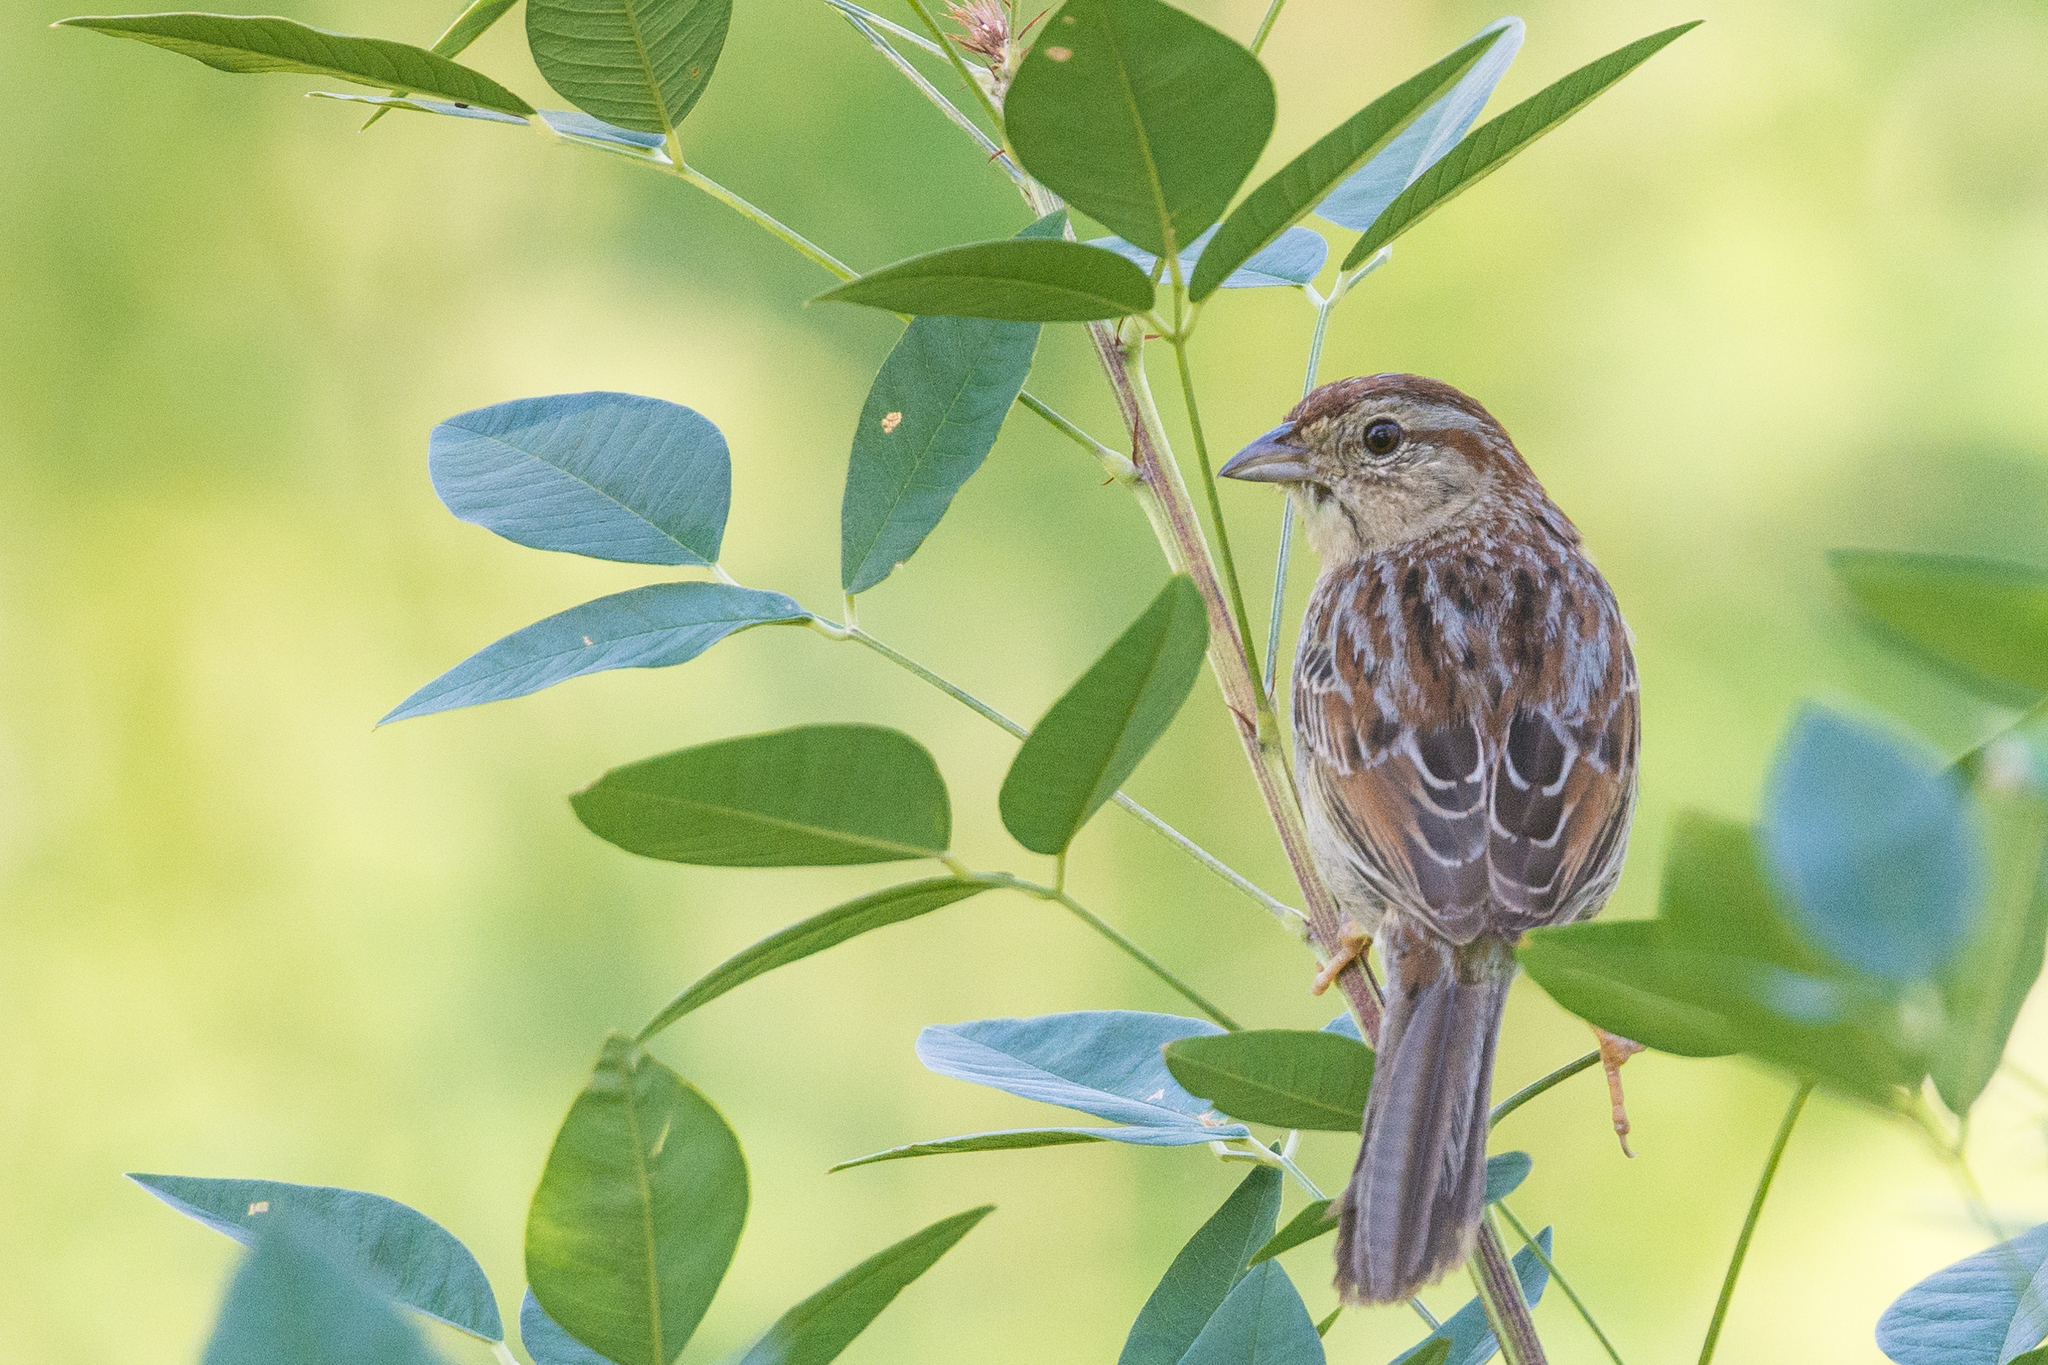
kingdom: Animalia
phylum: Chordata
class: Aves
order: Passeriformes
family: Passerellidae
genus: Peucaea
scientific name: Peucaea aestivalis
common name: Bachman's sparrow
